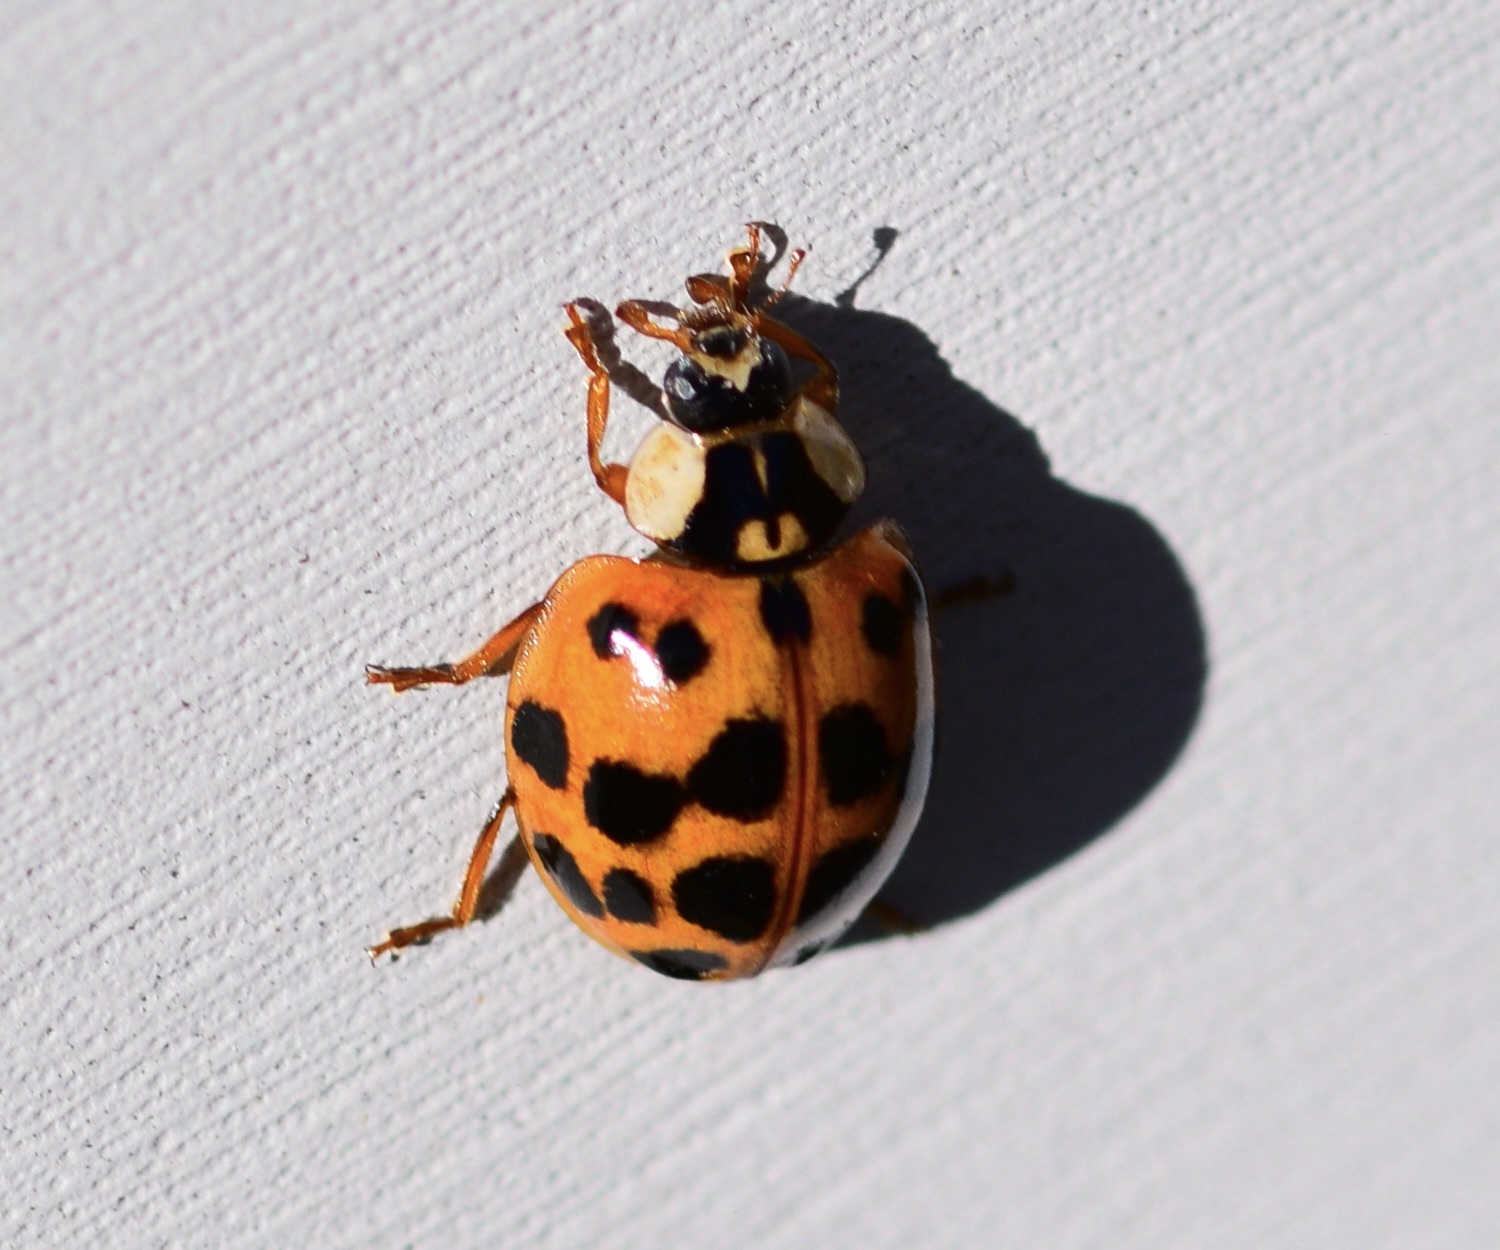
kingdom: Animalia
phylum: Arthropoda
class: Insecta
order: Coleoptera
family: Coccinellidae
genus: Harmonia
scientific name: Harmonia axyridis
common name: Harlequin ladybird
